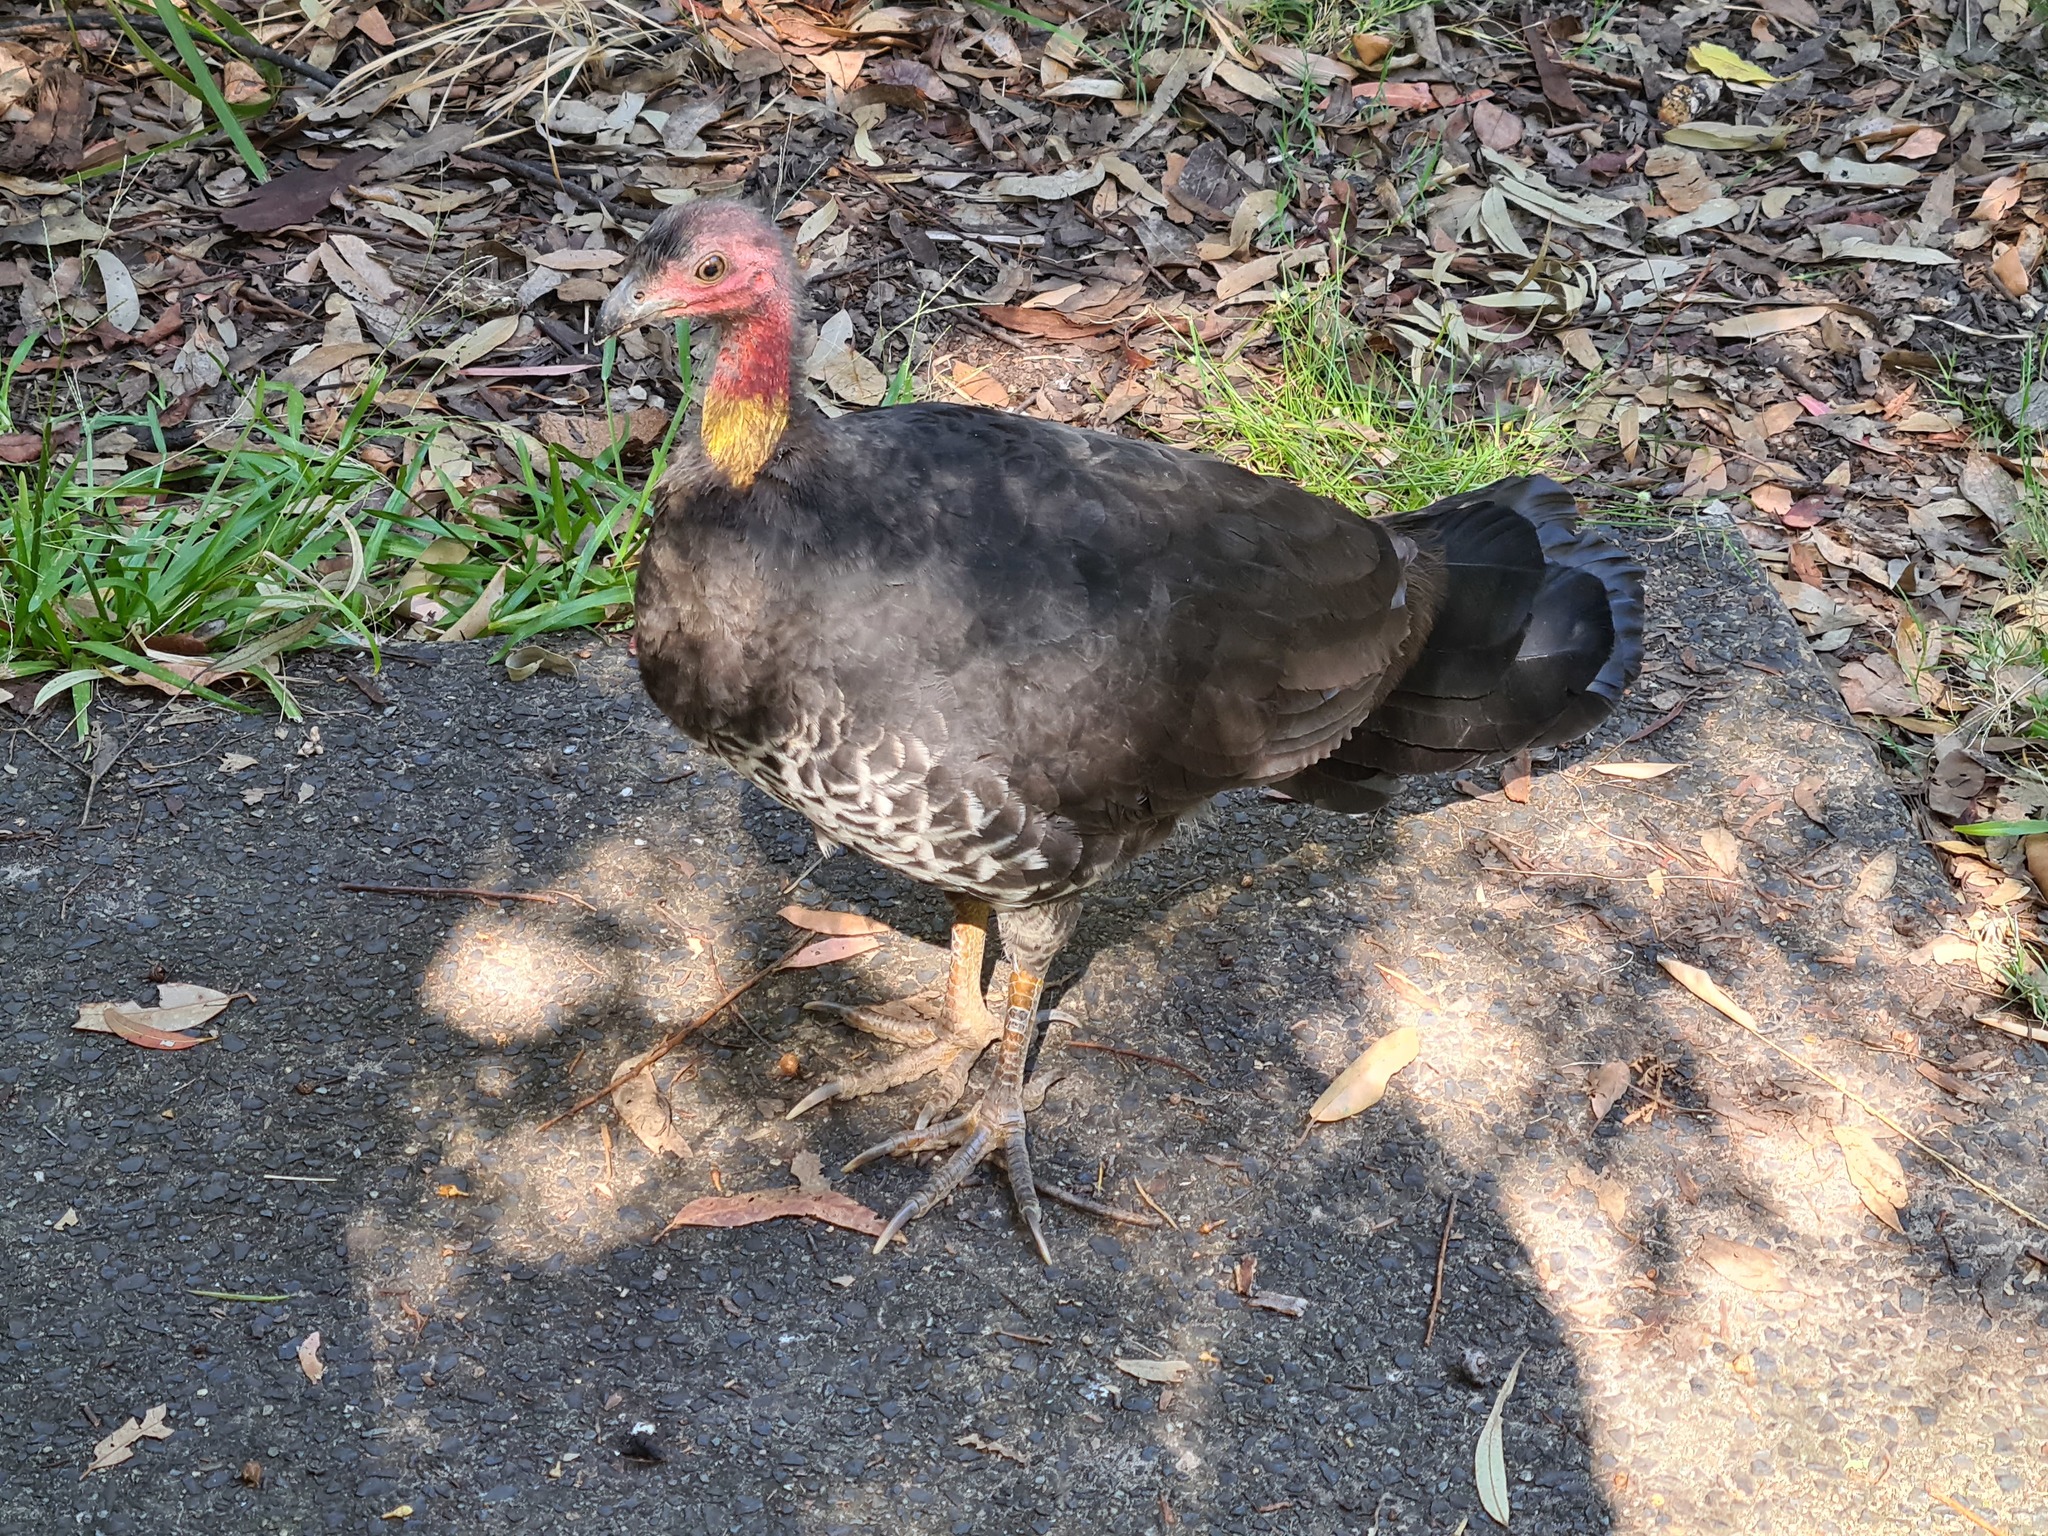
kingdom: Animalia
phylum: Chordata
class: Aves
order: Galliformes
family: Megapodiidae
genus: Alectura
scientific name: Alectura lathami
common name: Australian brushturkey
